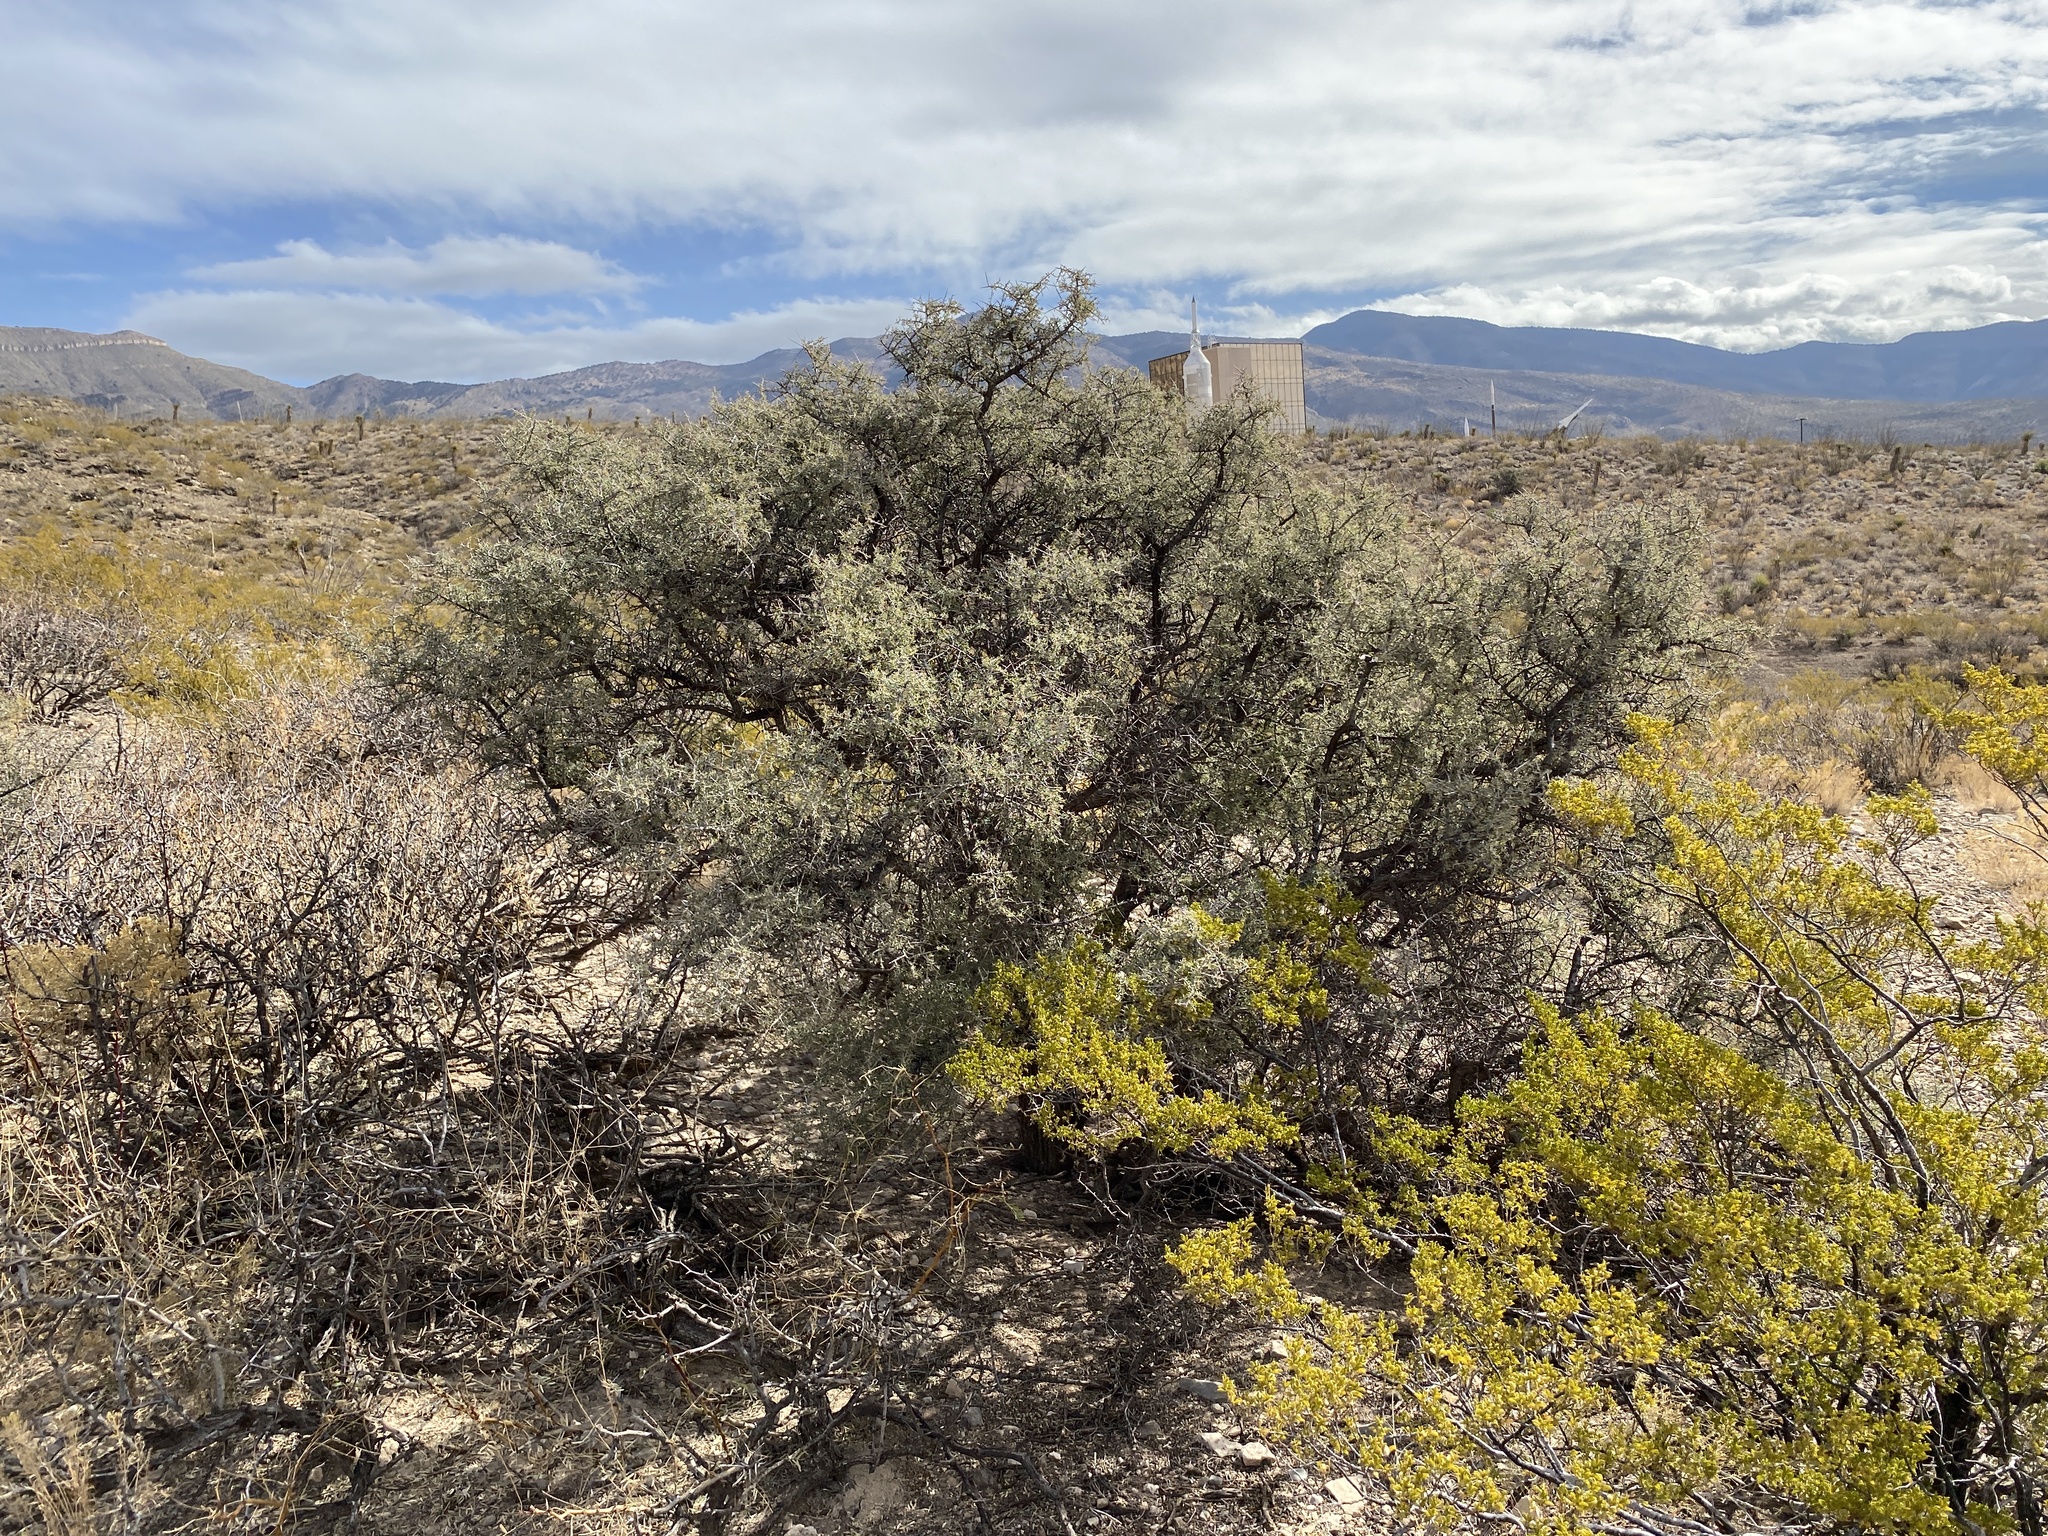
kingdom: Plantae
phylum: Tracheophyta
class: Magnoliopsida
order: Rosales
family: Rhamnaceae
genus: Condalia
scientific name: Condalia warnockii
